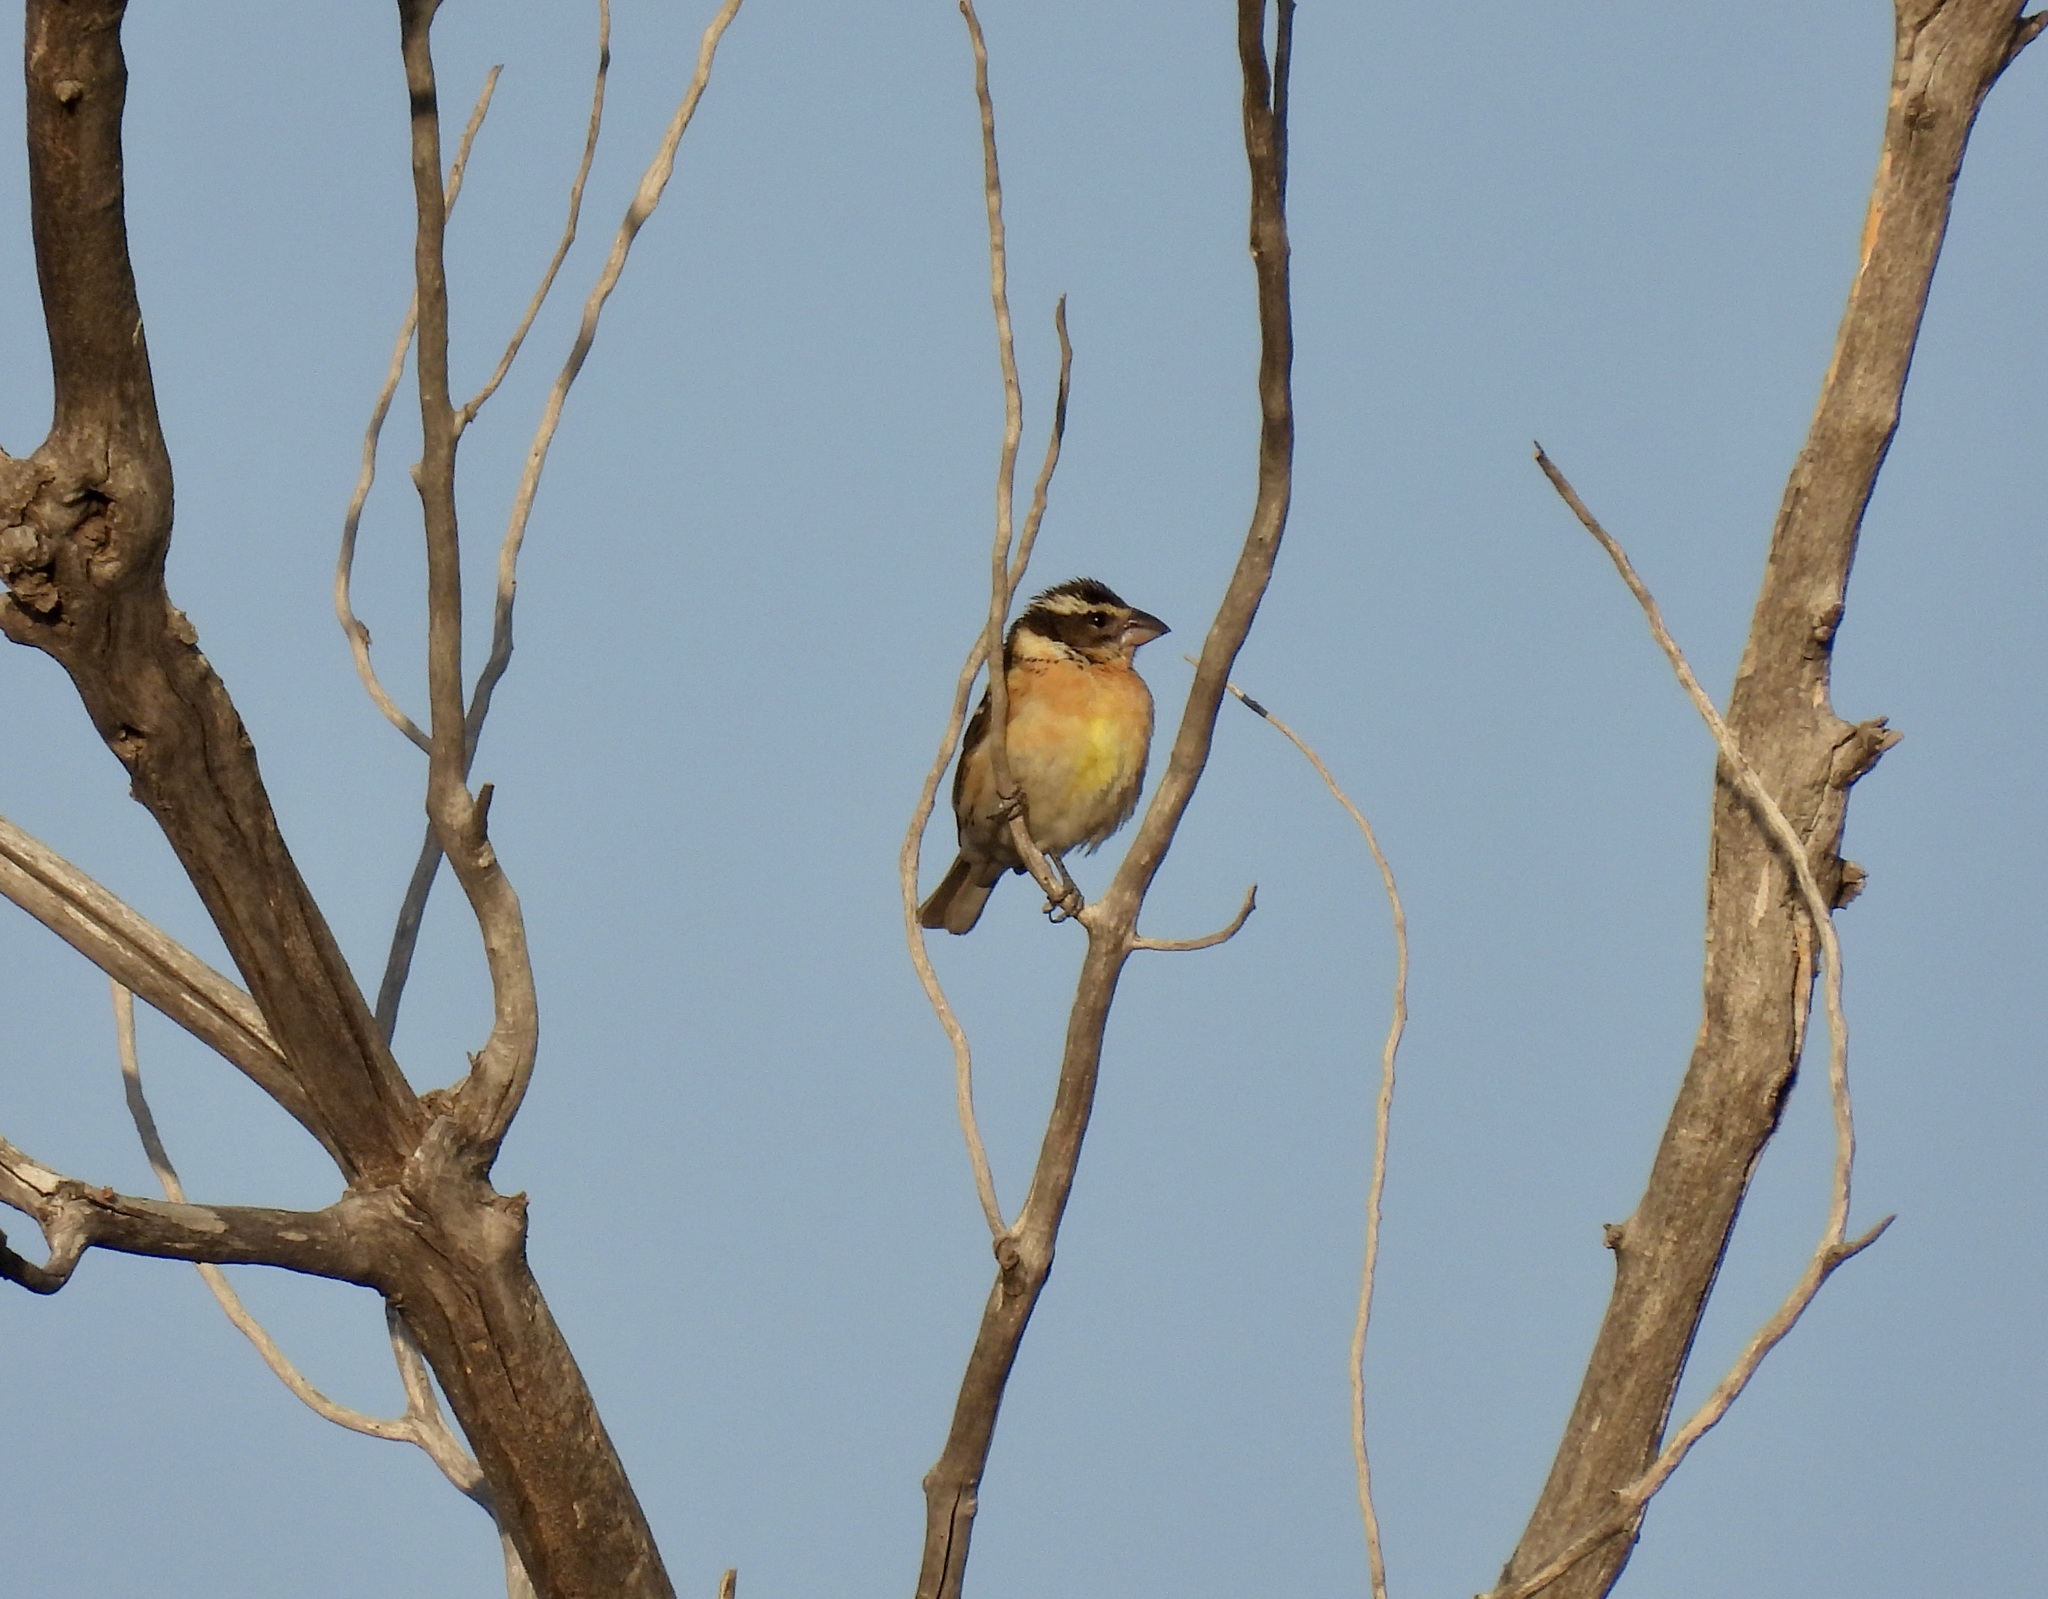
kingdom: Animalia
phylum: Chordata
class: Aves
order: Passeriformes
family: Cardinalidae
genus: Pheucticus
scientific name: Pheucticus melanocephalus
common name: Black-headed grosbeak
